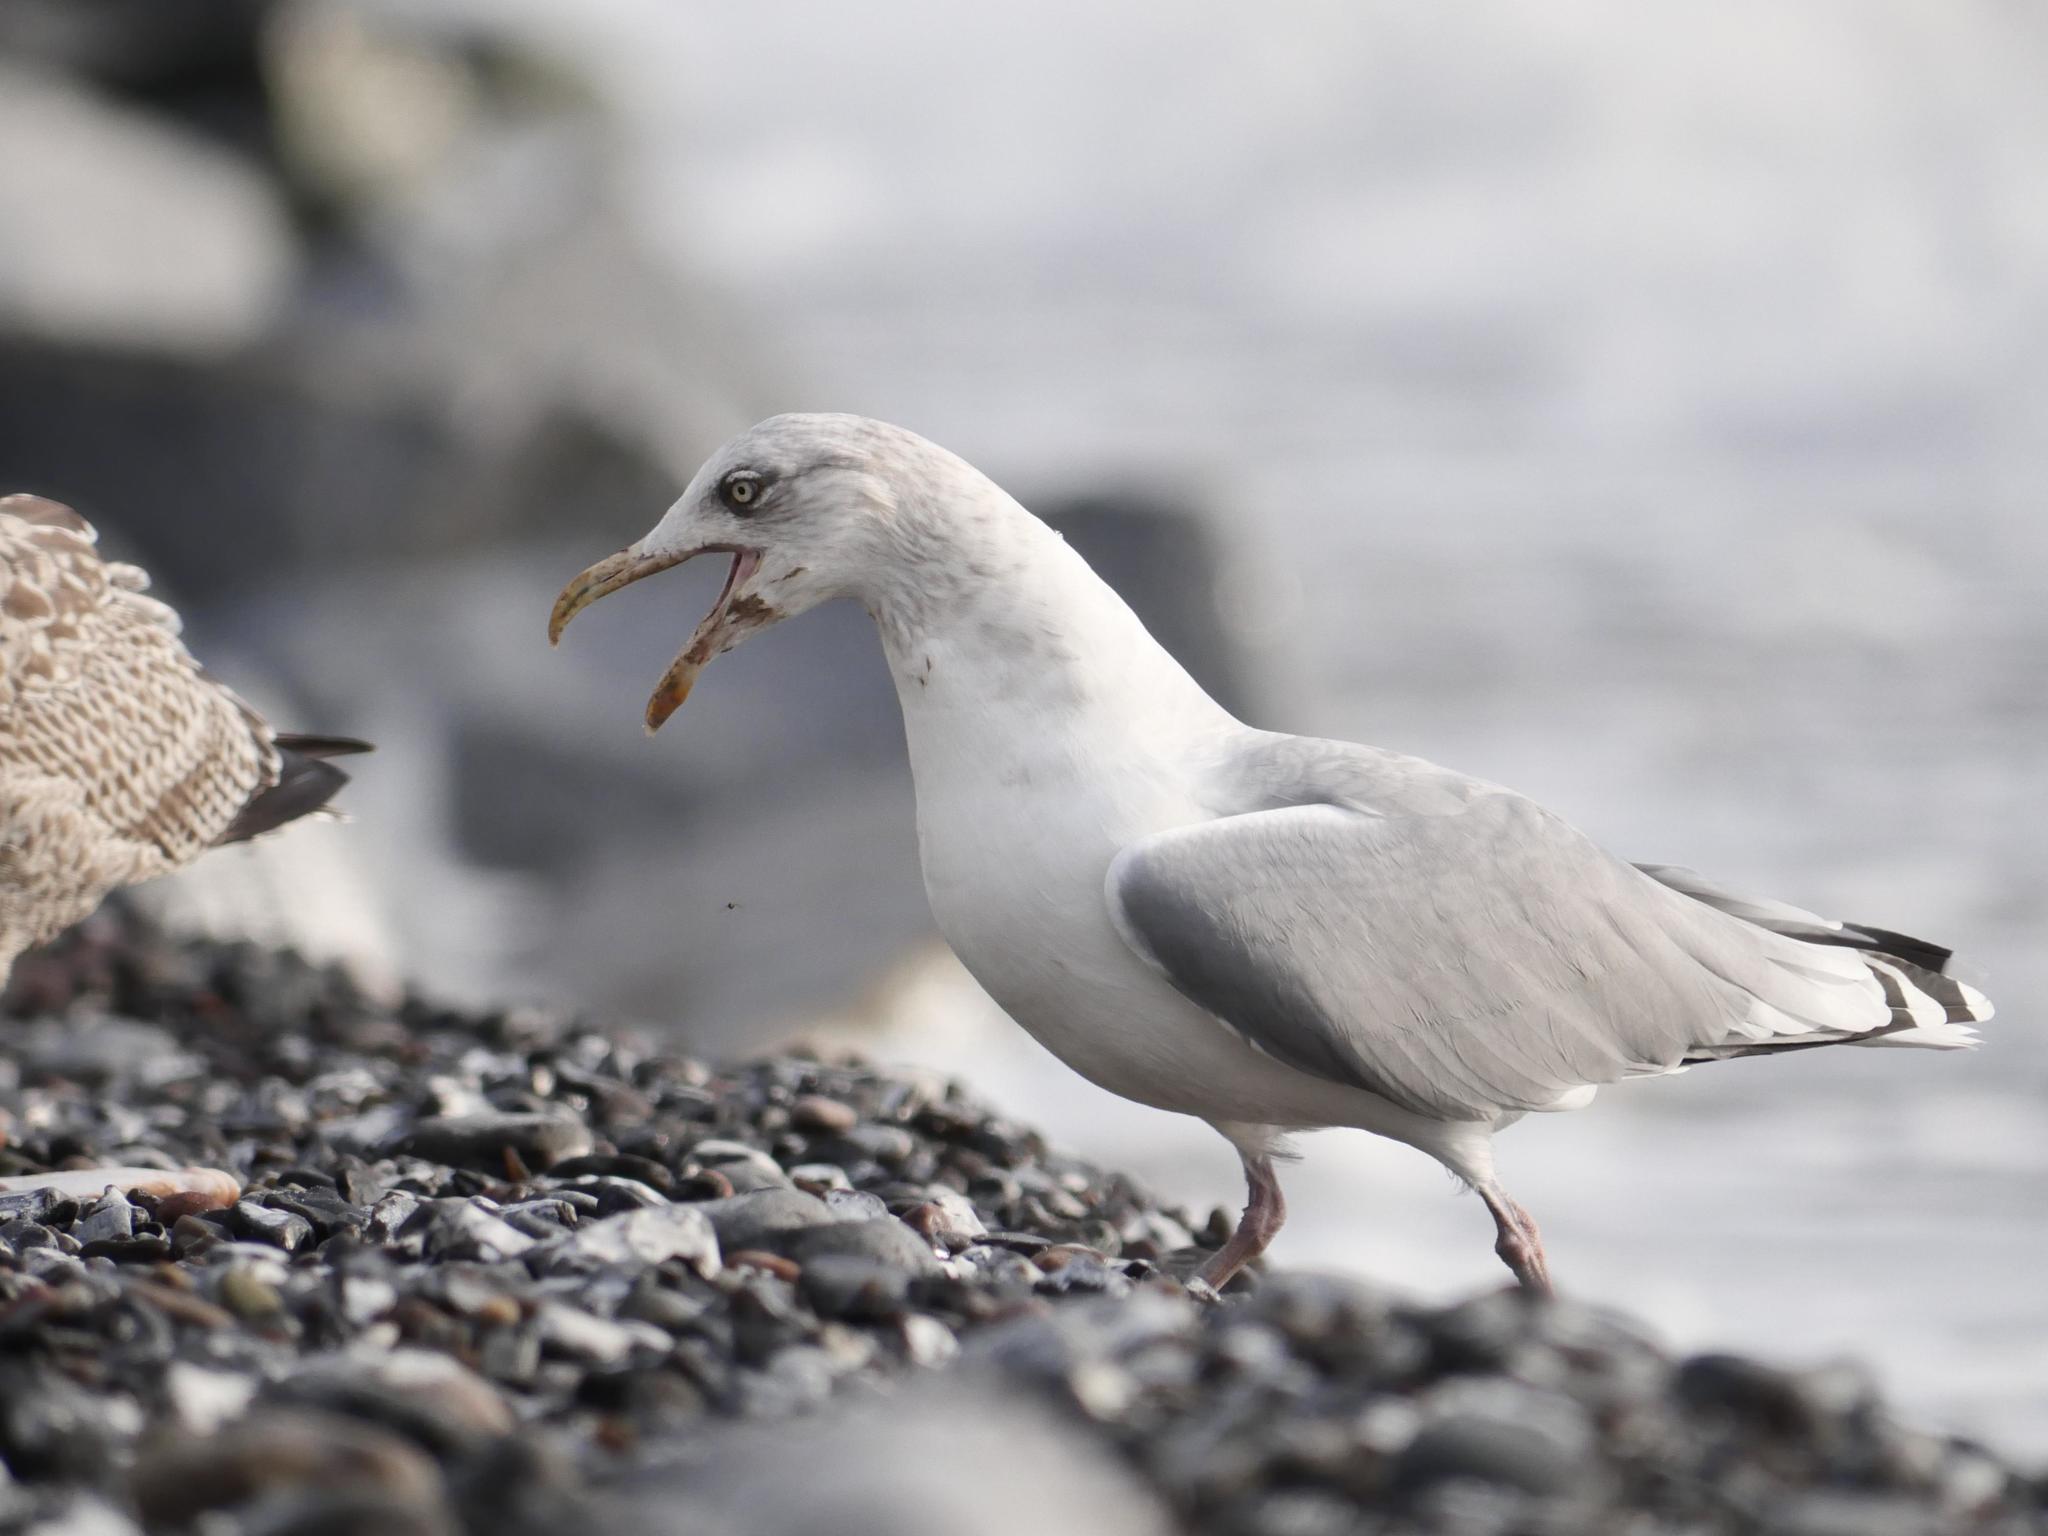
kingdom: Animalia
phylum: Chordata
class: Aves
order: Charadriiformes
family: Laridae
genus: Larus
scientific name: Larus argentatus
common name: Herring gull
